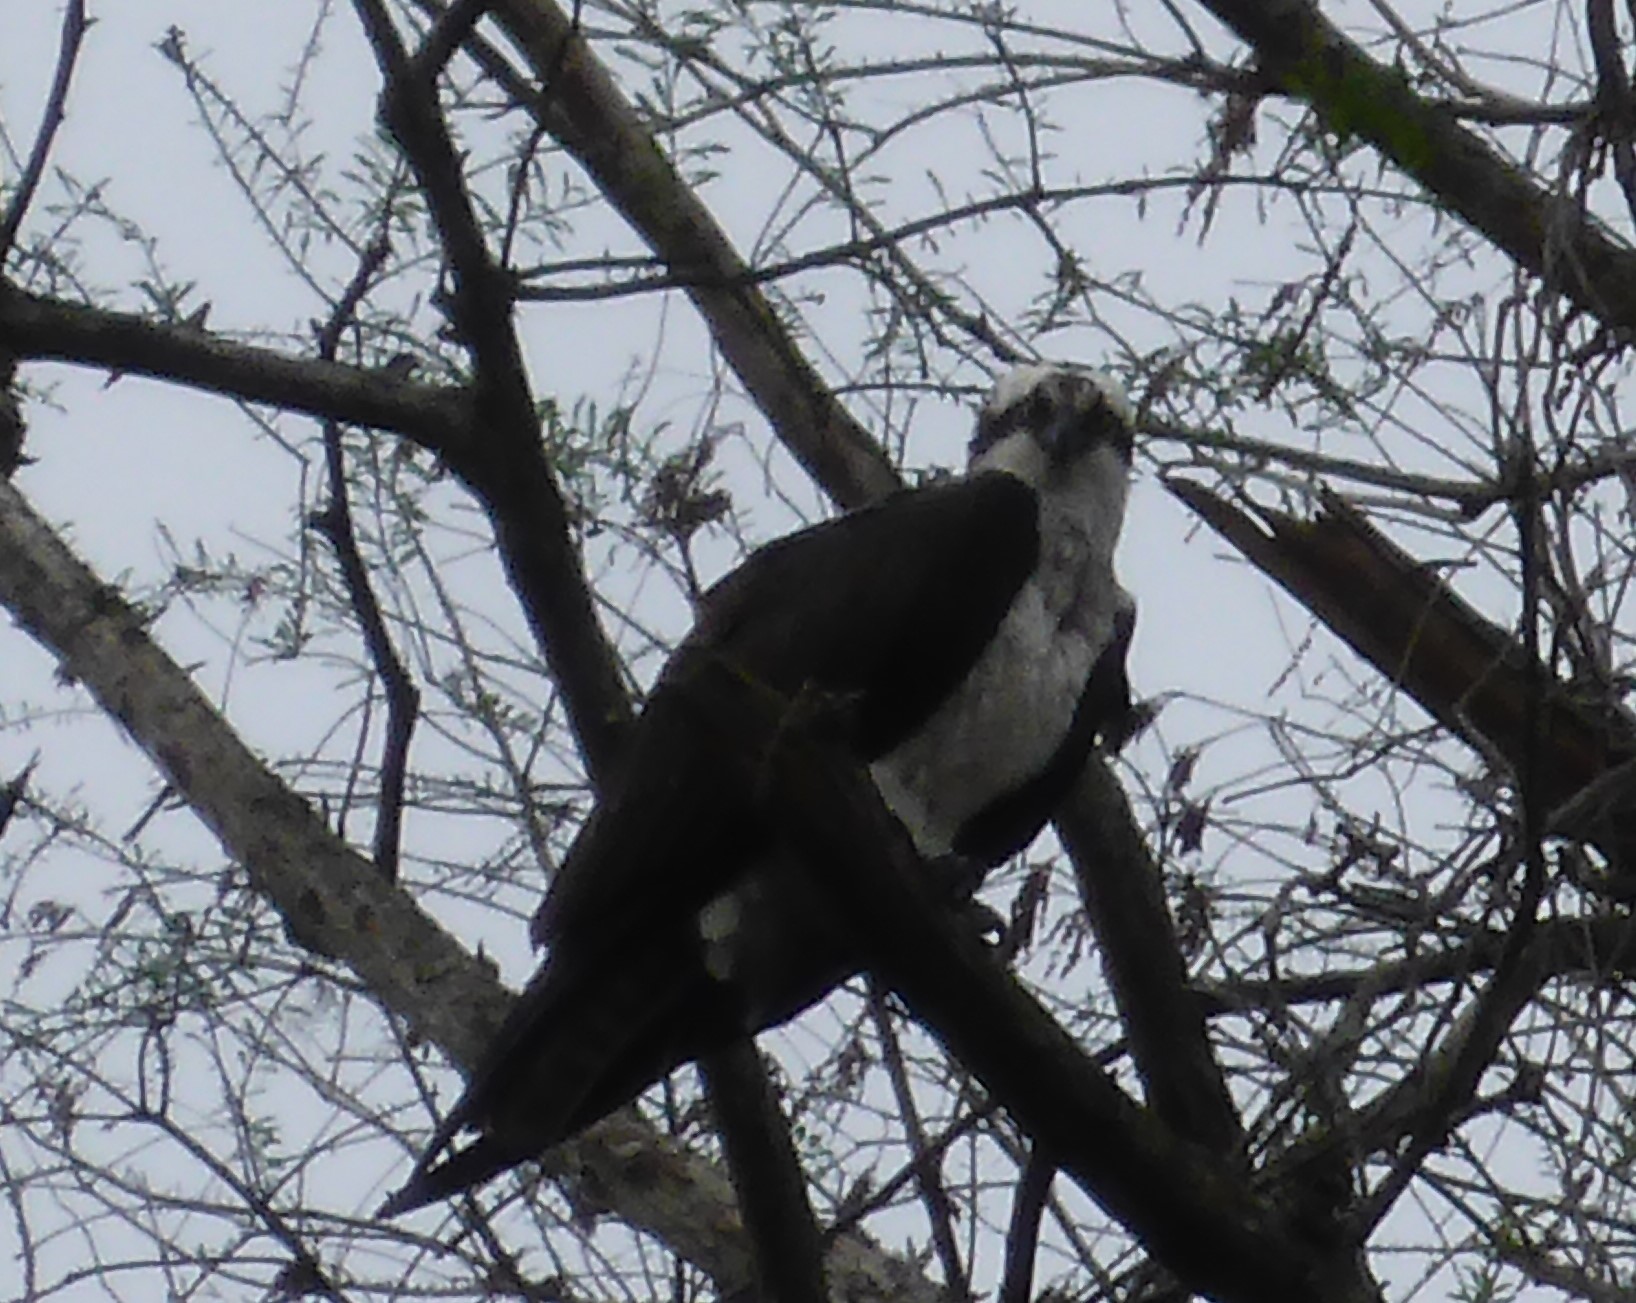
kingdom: Animalia
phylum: Chordata
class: Aves
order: Accipitriformes
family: Pandionidae
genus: Pandion
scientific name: Pandion haliaetus
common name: Osprey
